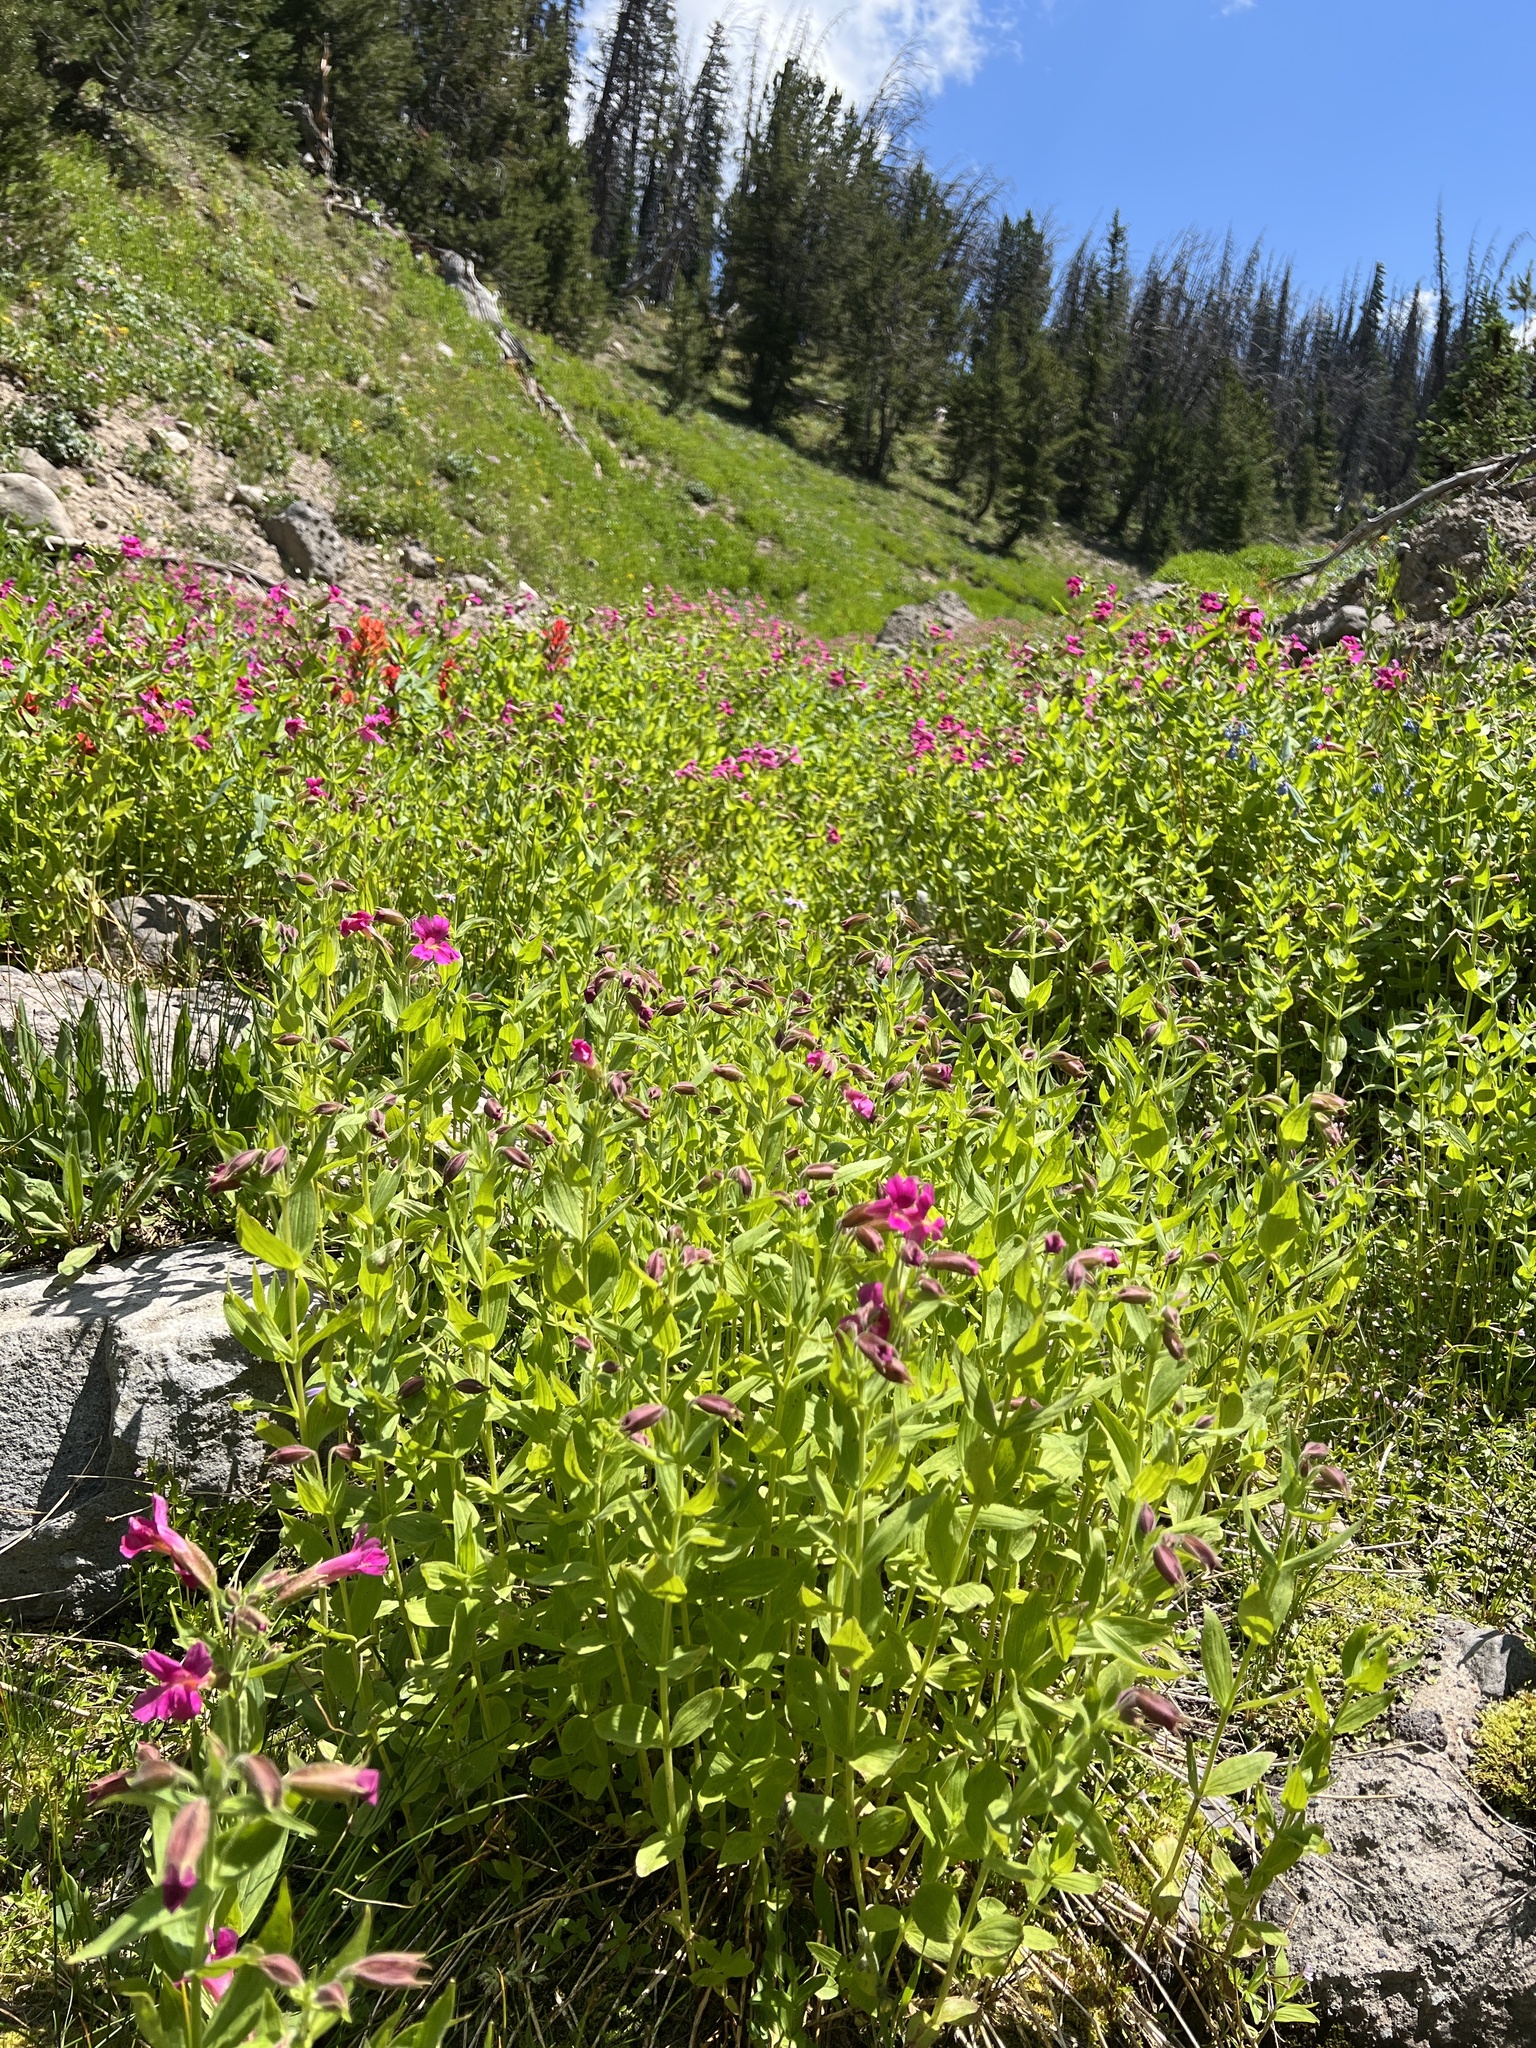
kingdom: Plantae
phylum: Tracheophyta
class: Magnoliopsida
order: Lamiales
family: Phrymaceae
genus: Erythranthe
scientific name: Erythranthe lewisii
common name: Lewis's monkey-flower
